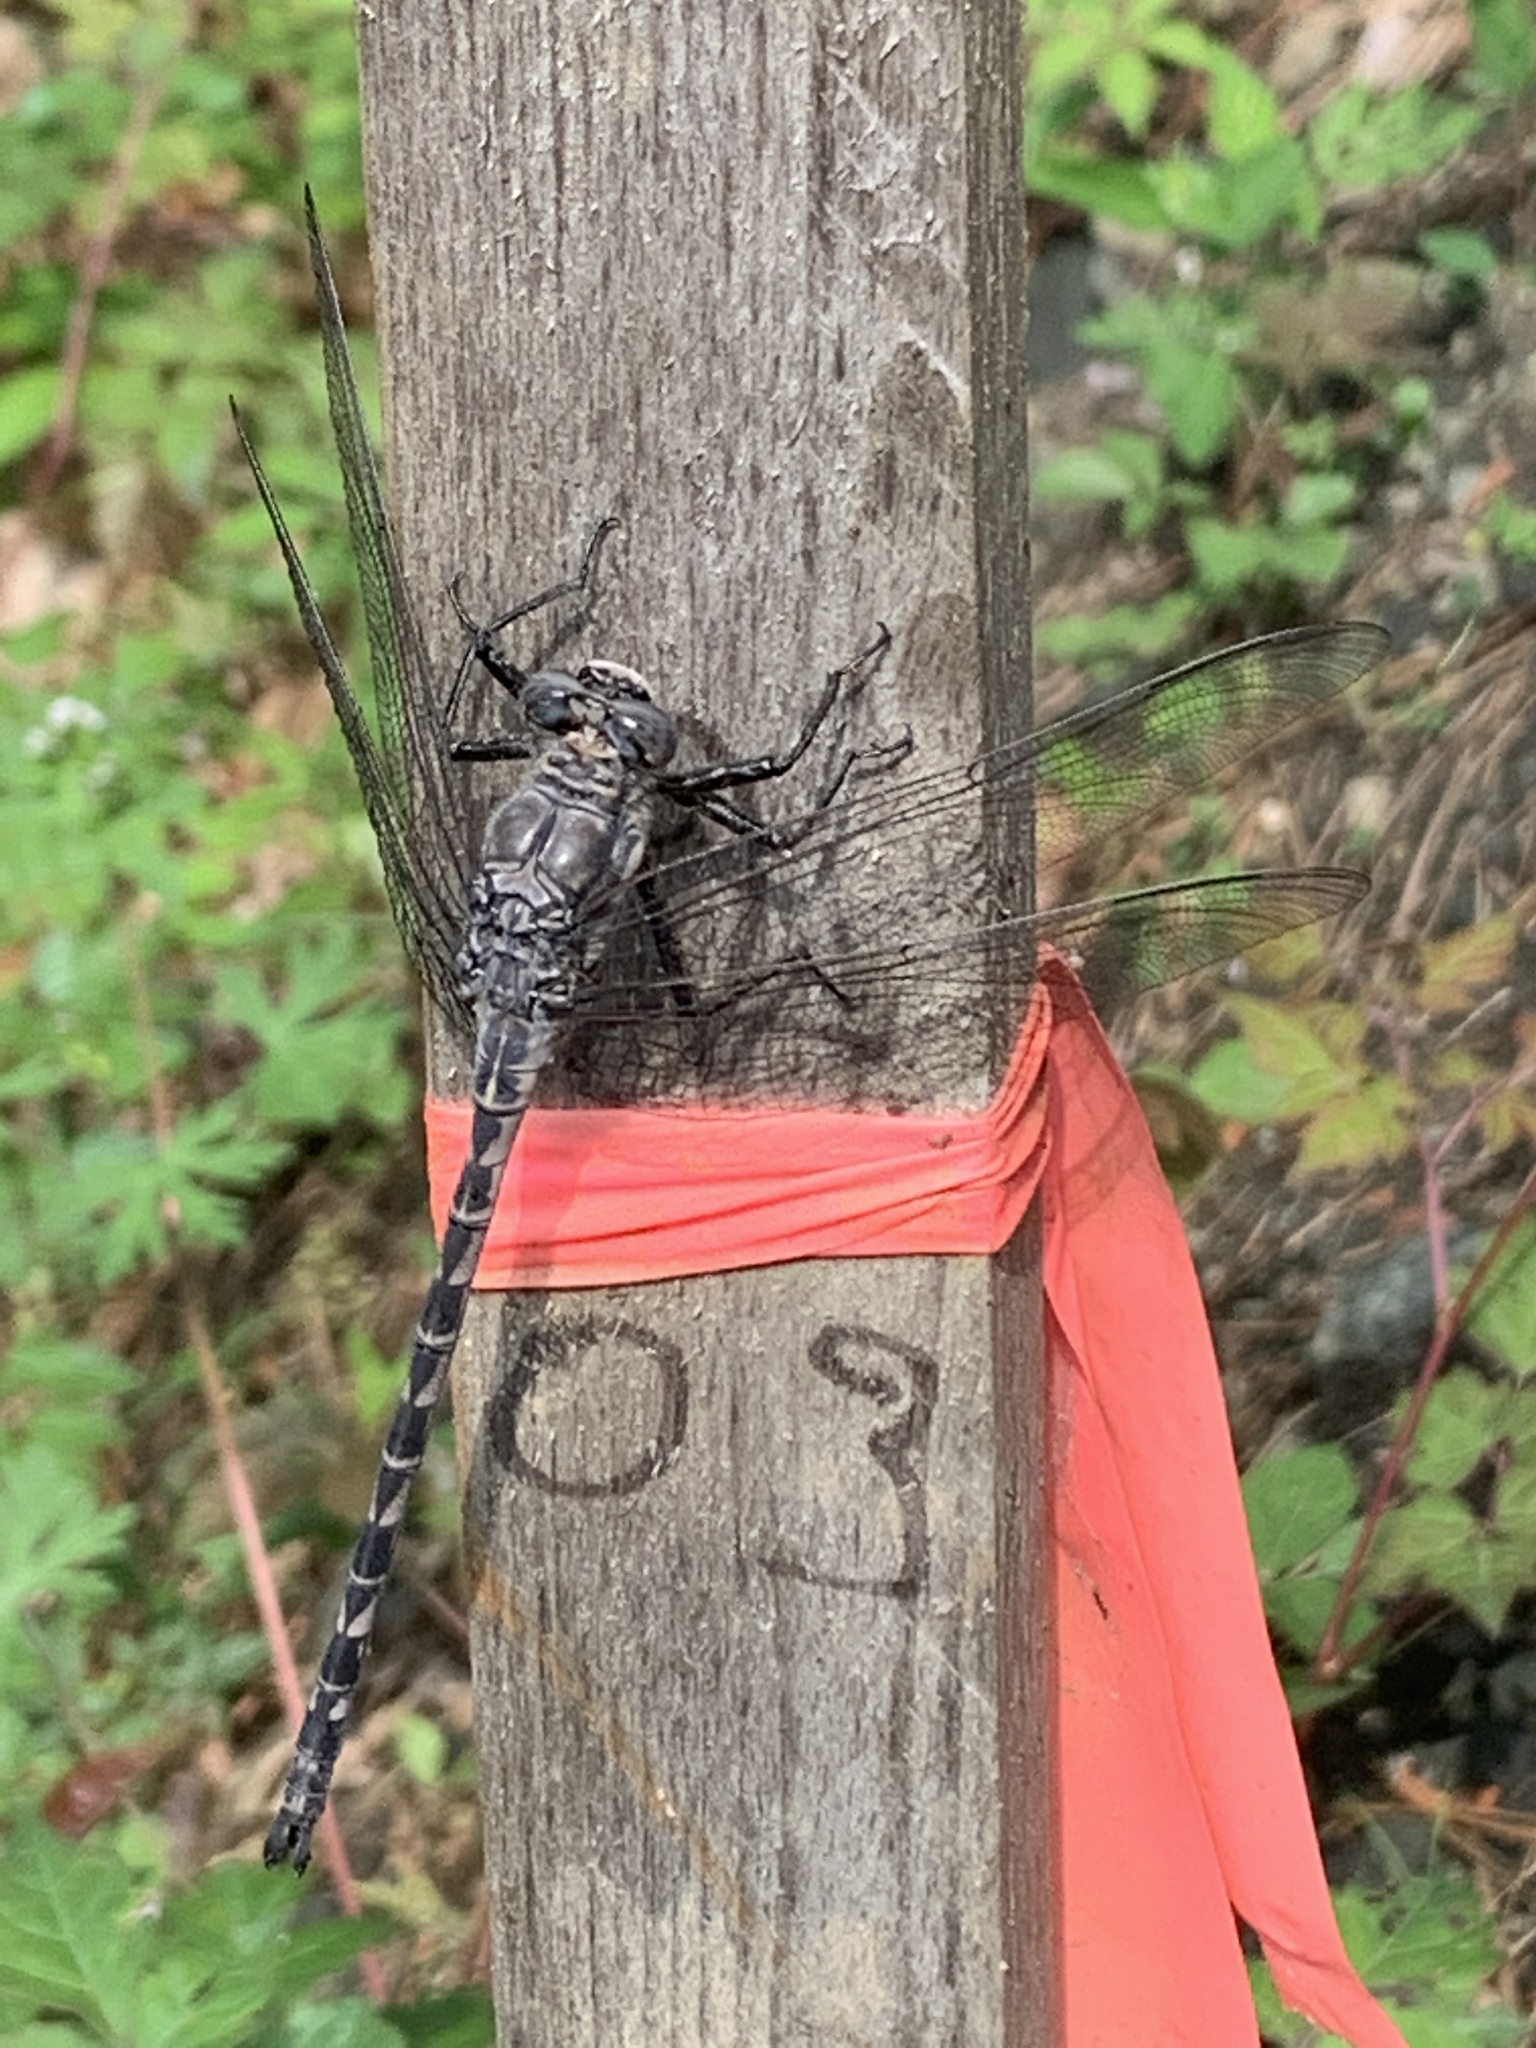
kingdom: Animalia
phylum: Arthropoda
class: Insecta
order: Odonata
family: Petaluridae
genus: Tachopteryx
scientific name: Tachopteryx thoreyi
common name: Gray petaltail
